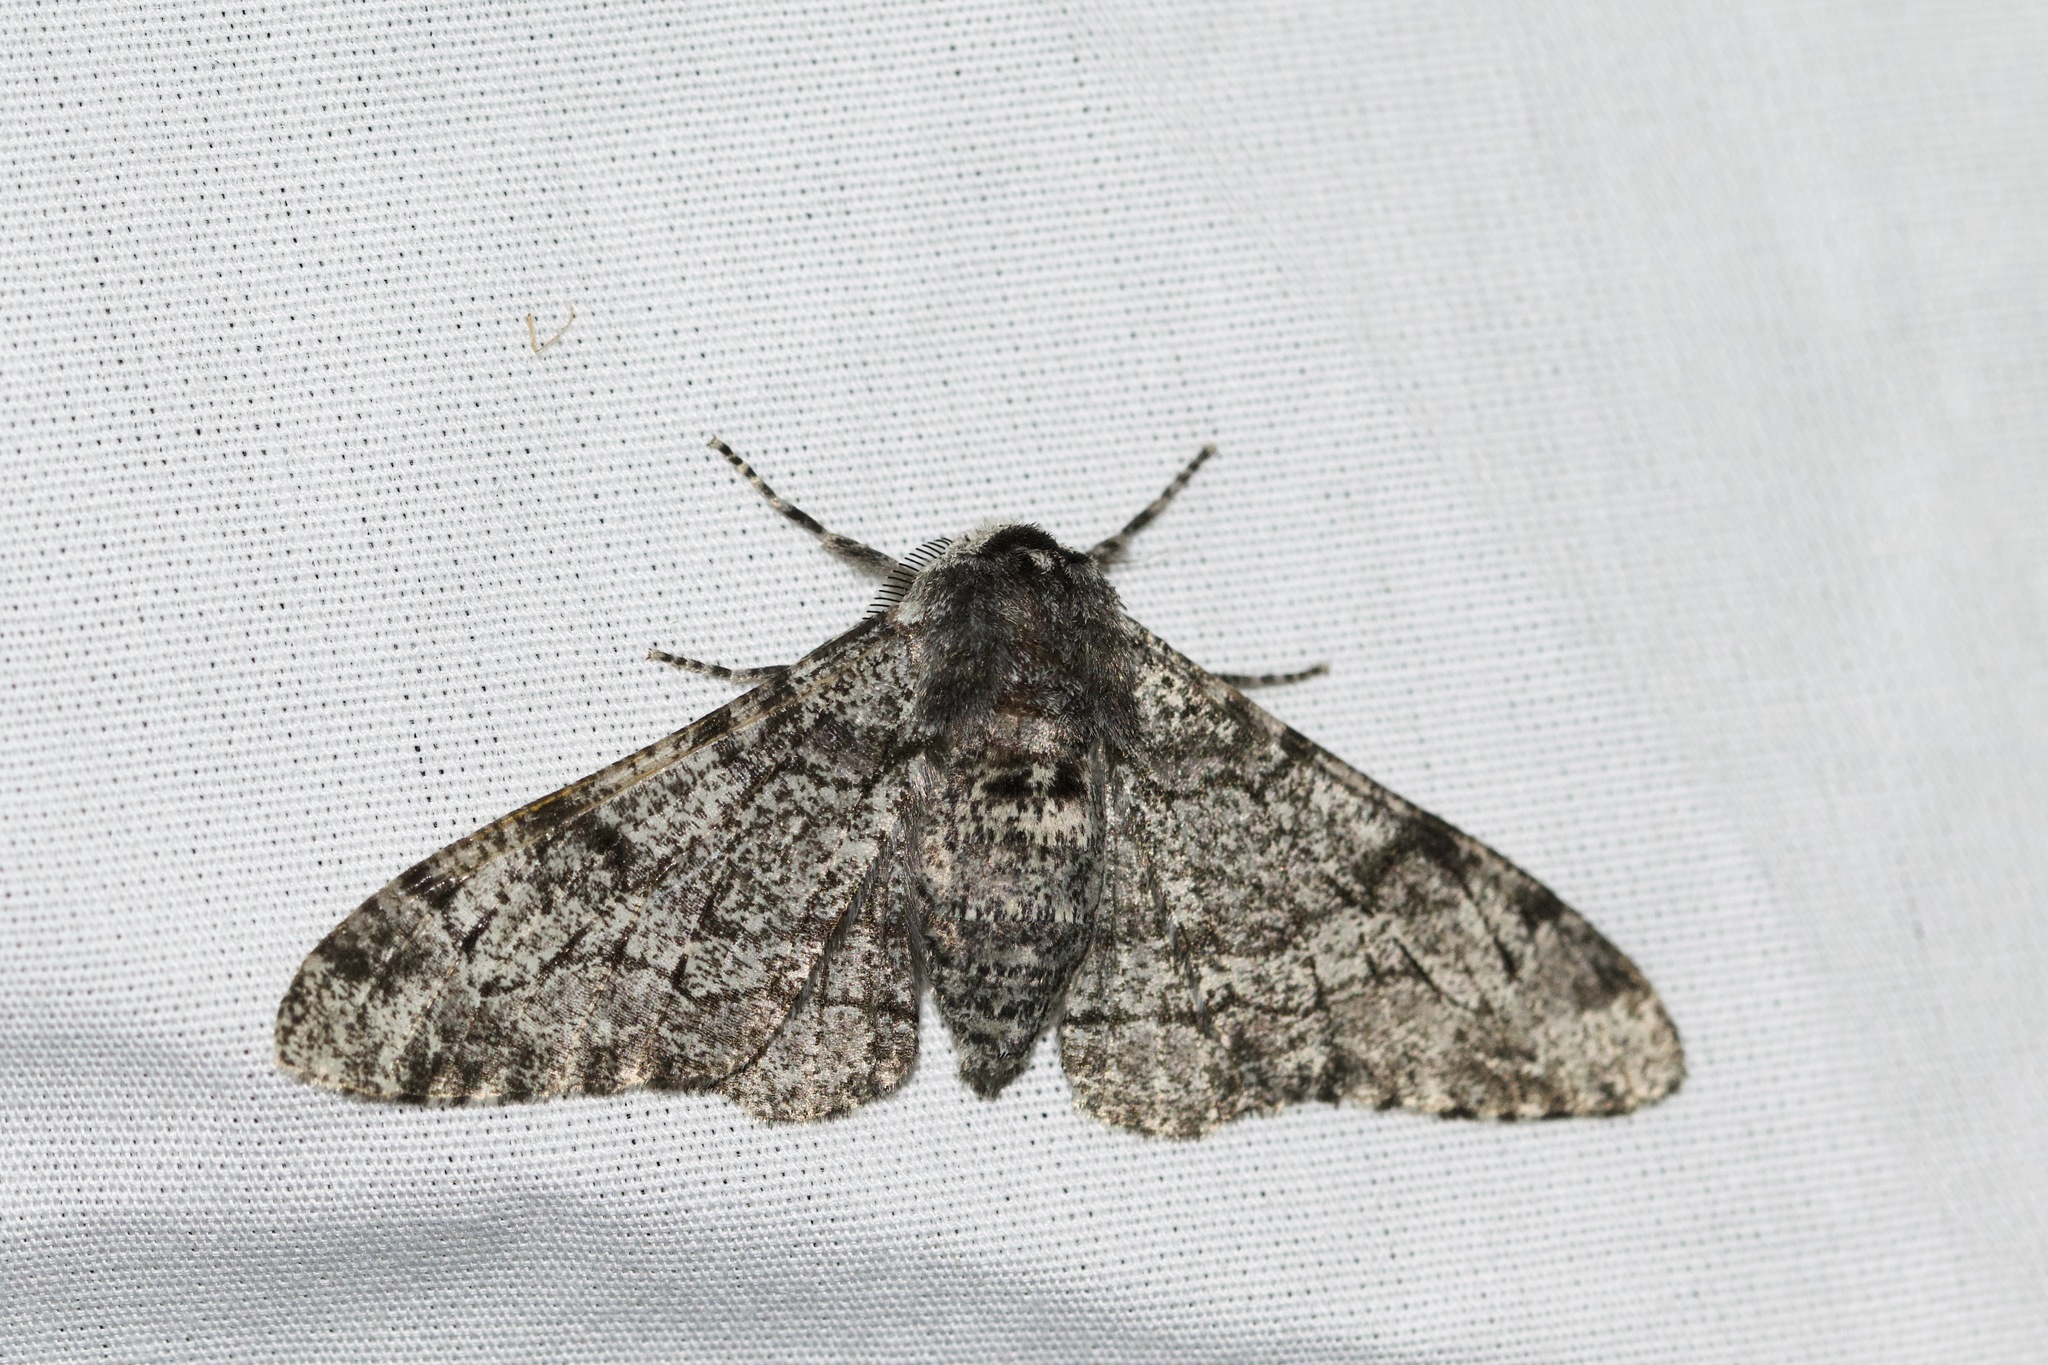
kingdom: Animalia
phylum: Arthropoda
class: Insecta
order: Lepidoptera
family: Geometridae
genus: Biston
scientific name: Biston betularia
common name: Peppered moth
